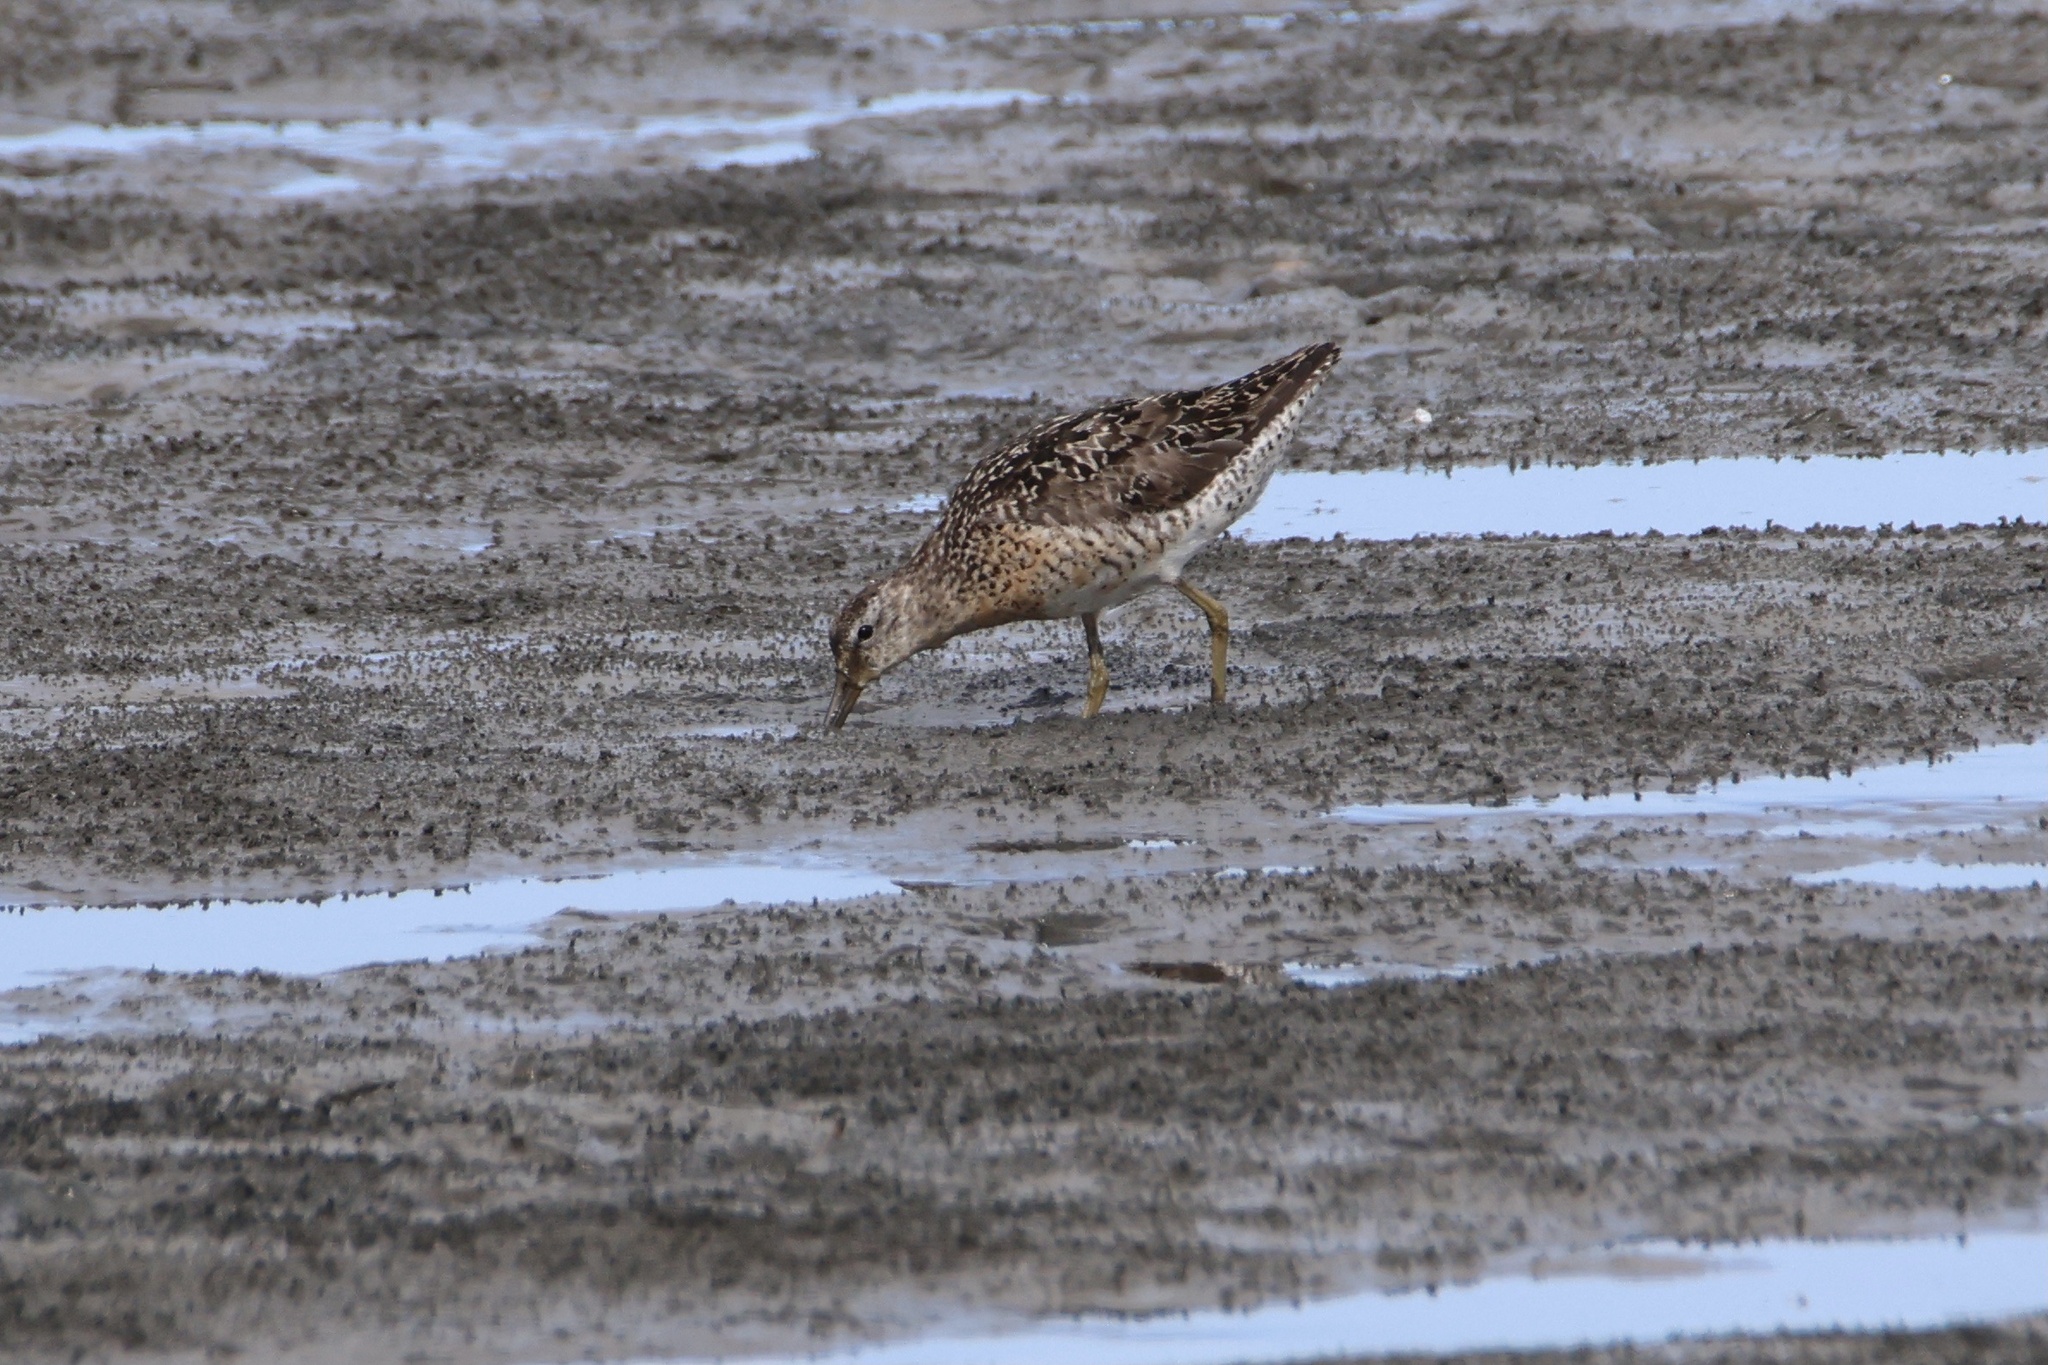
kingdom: Animalia
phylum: Chordata
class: Aves
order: Charadriiformes
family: Scolopacidae
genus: Limnodromus
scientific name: Limnodromus griseus
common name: Short-billed dowitcher
